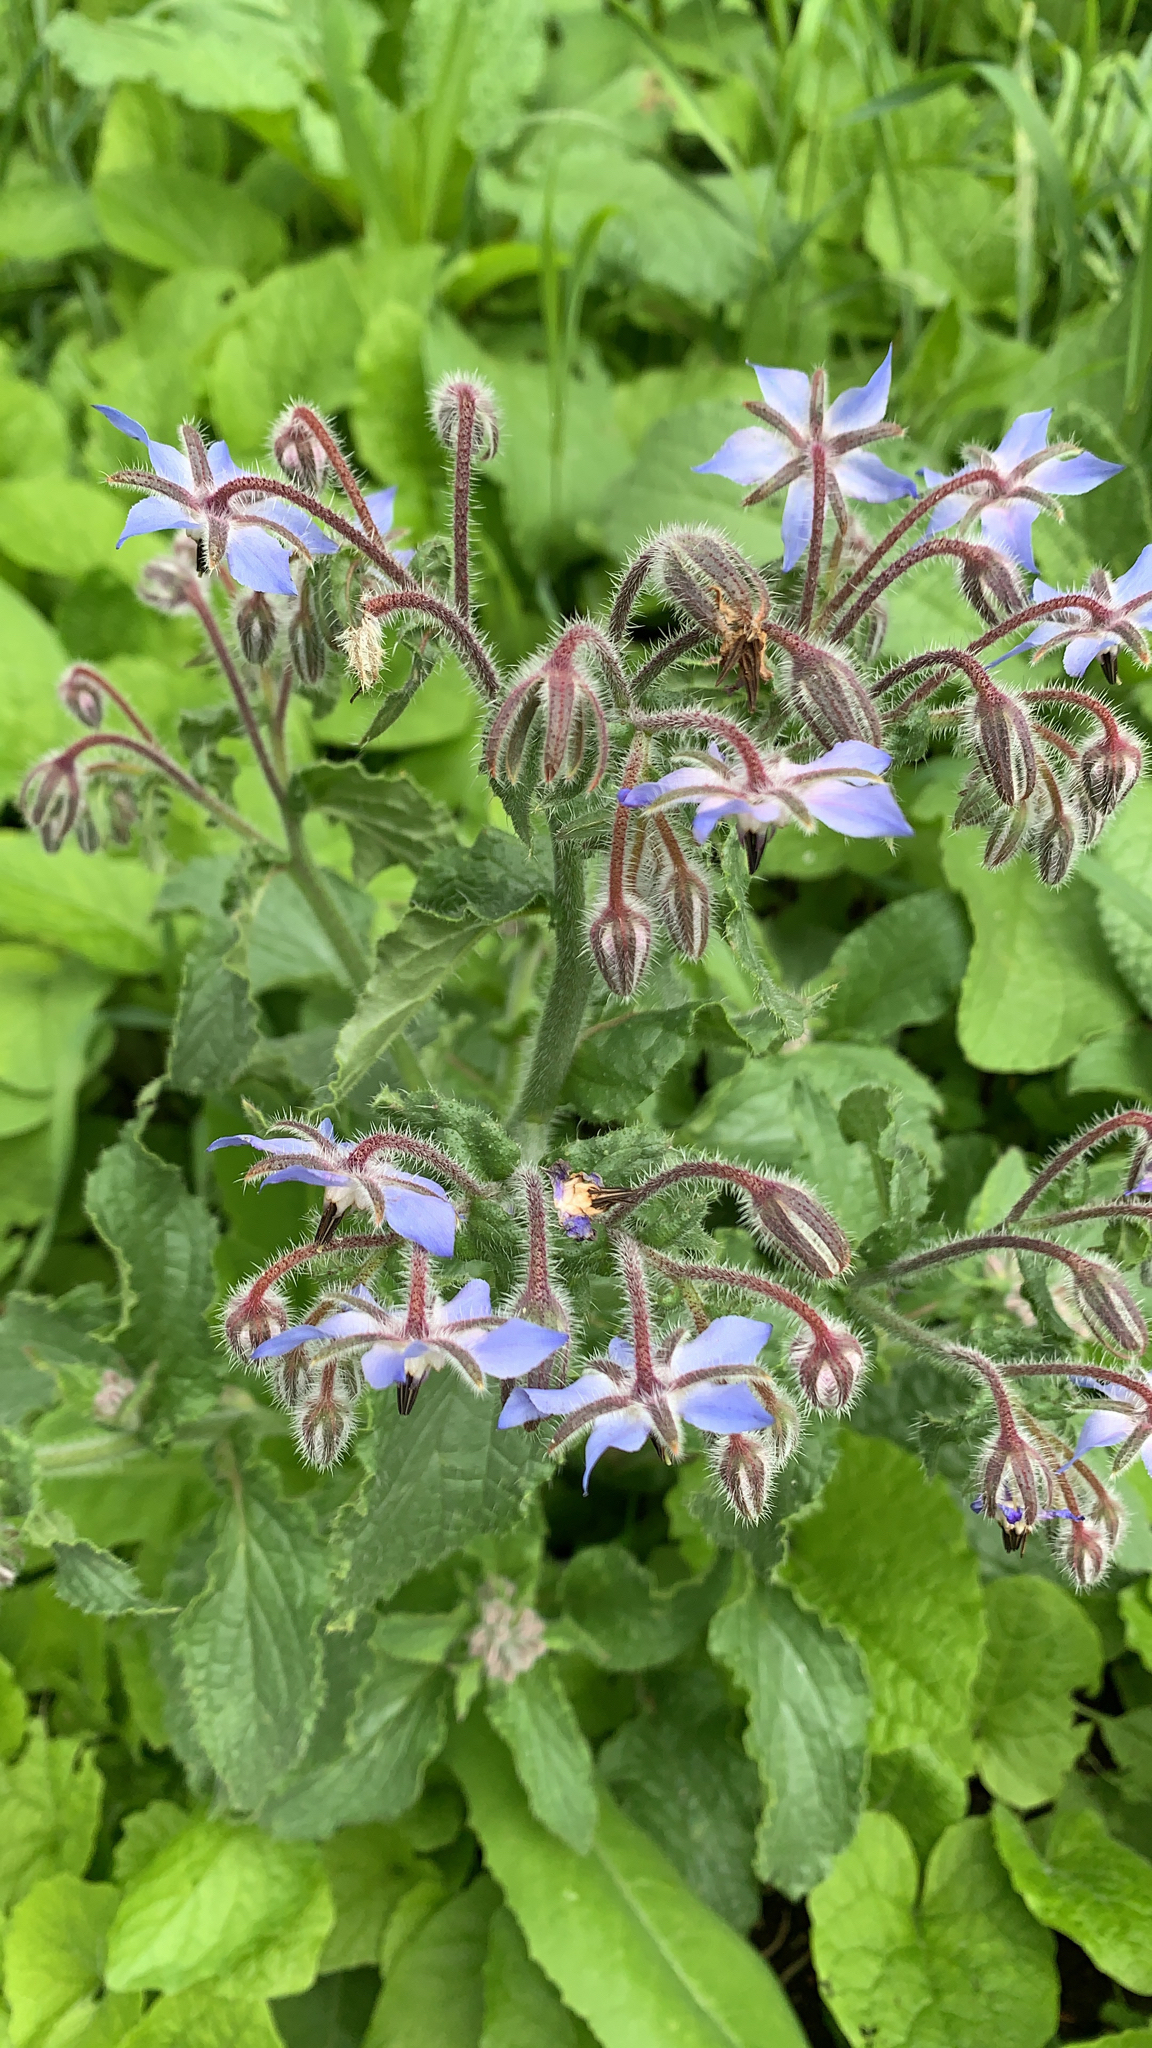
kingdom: Plantae
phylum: Tracheophyta
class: Magnoliopsida
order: Boraginales
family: Boraginaceae
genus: Borago
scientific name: Borago officinalis
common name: Borage
